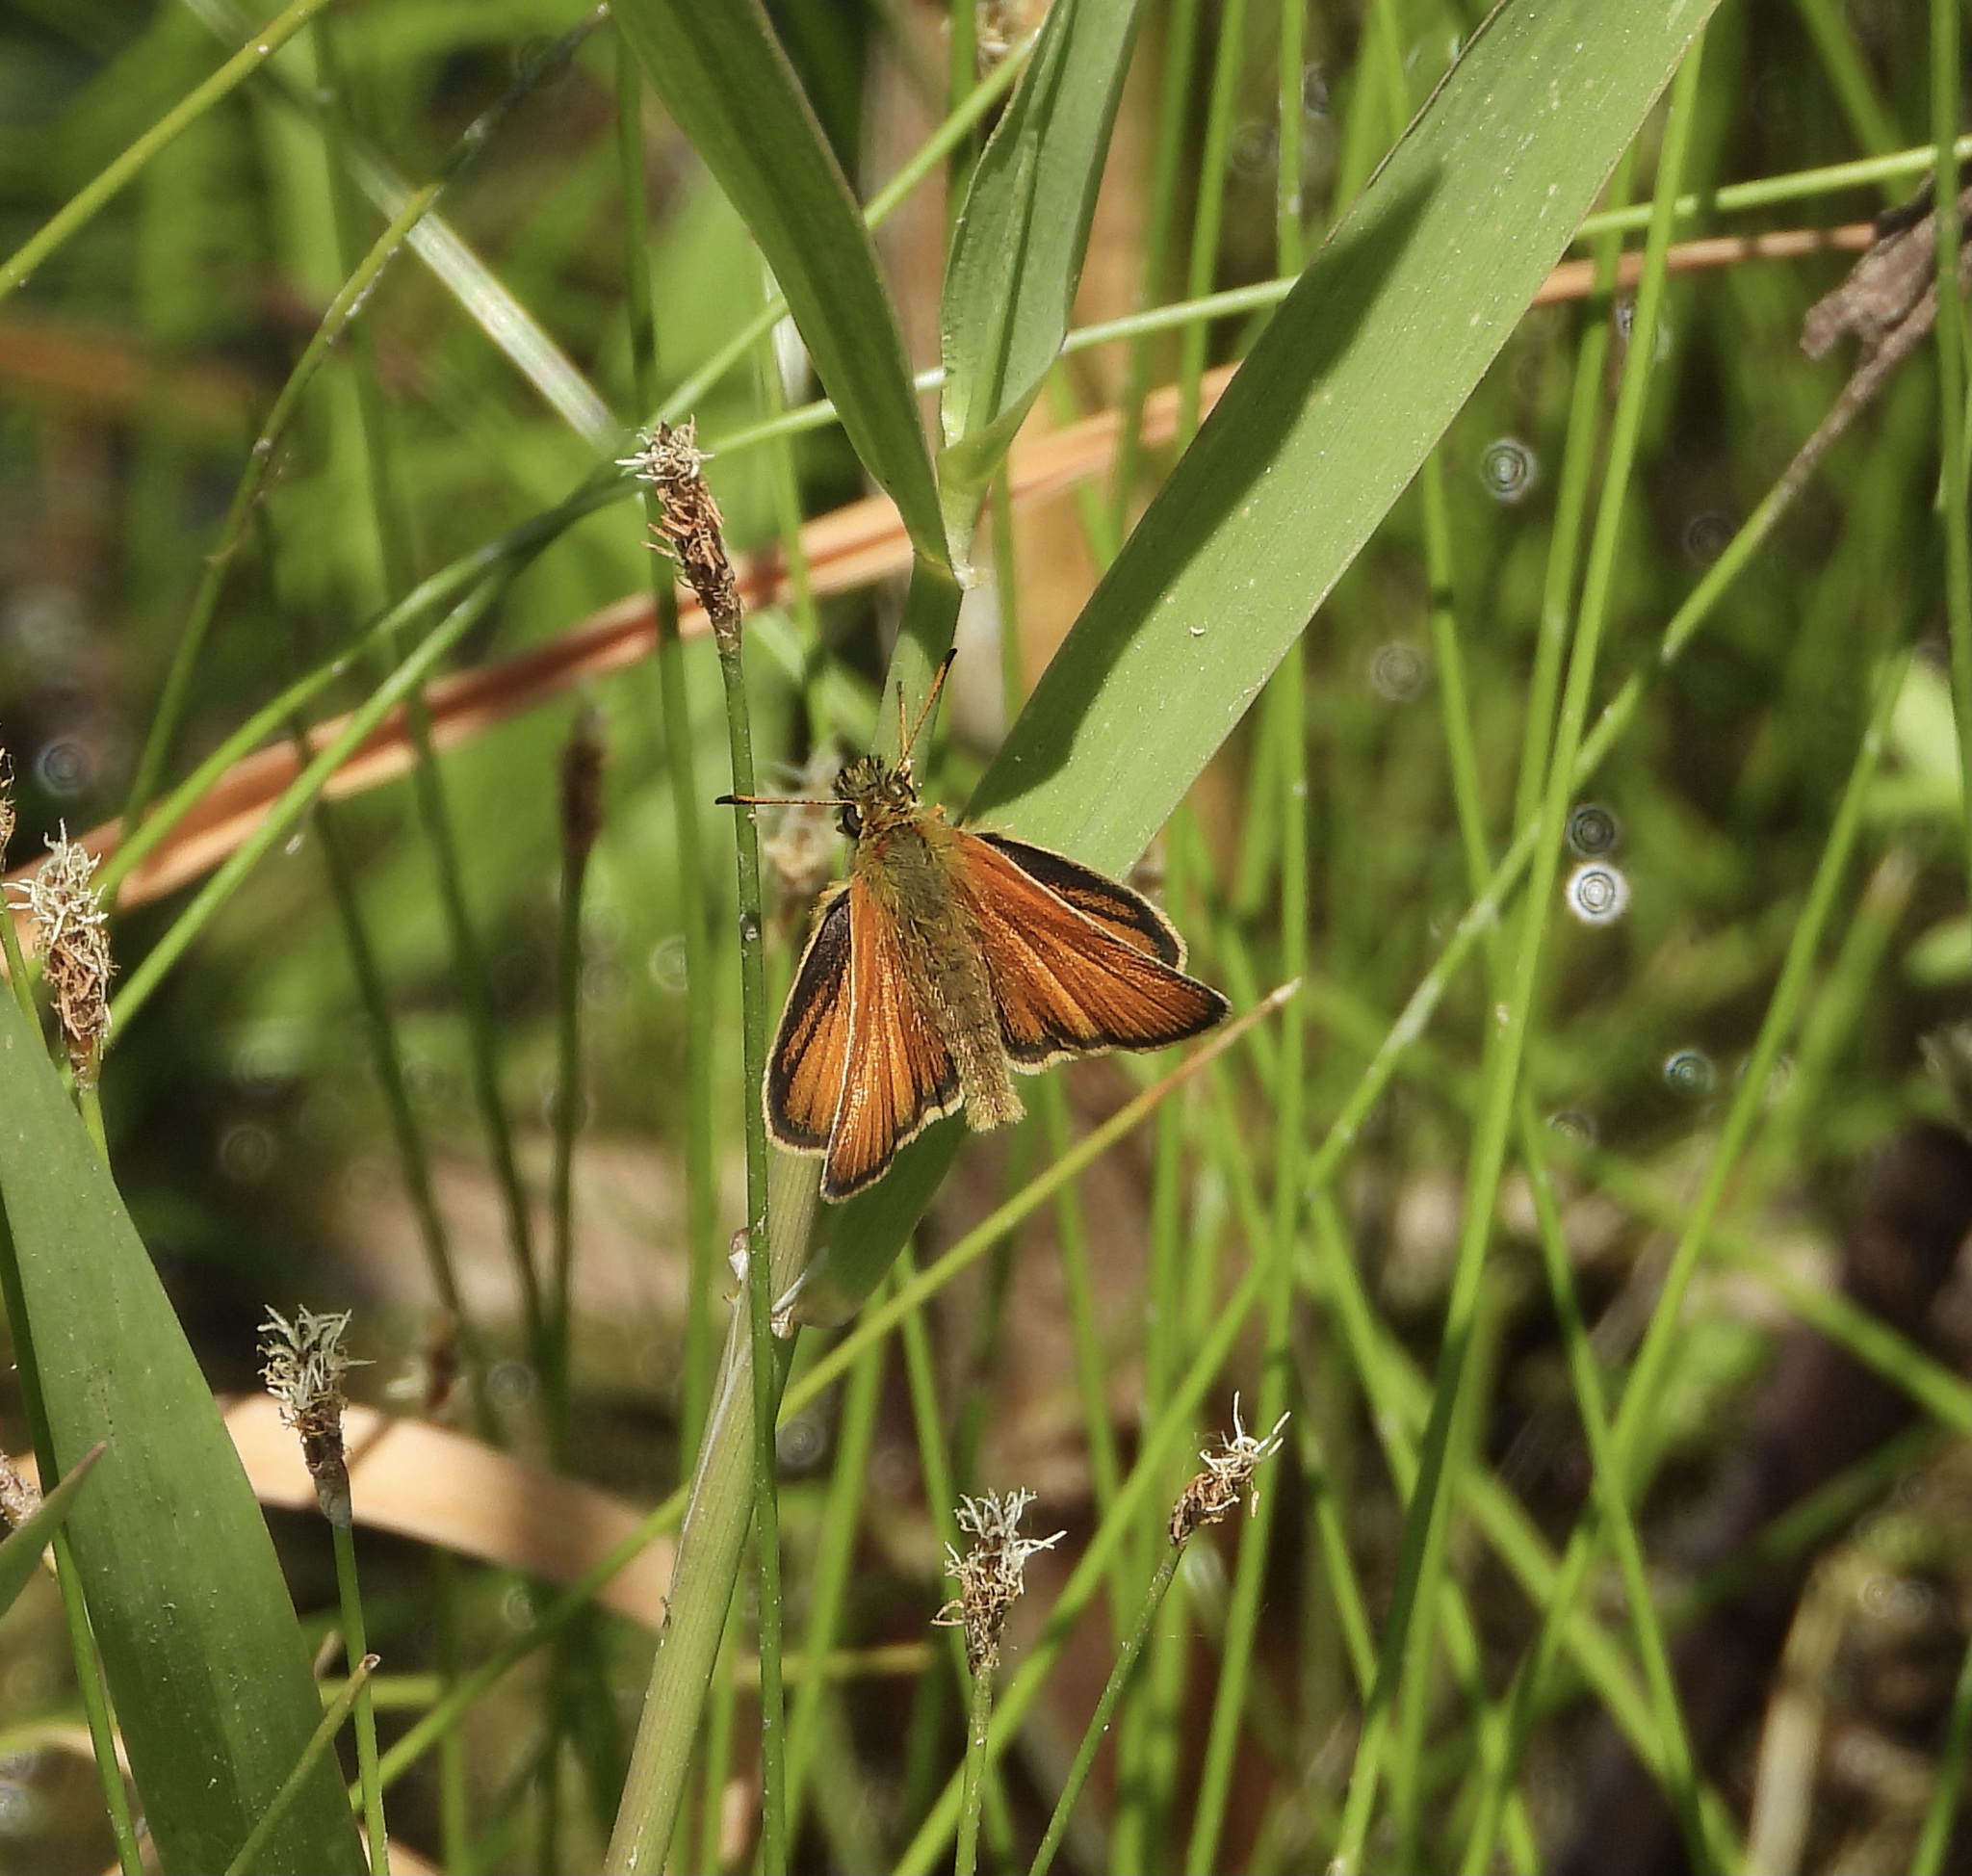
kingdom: Animalia
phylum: Arthropoda
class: Insecta
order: Lepidoptera
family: Hesperiidae
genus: Thymelicus
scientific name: Thymelicus lineola
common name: Essex skipper
